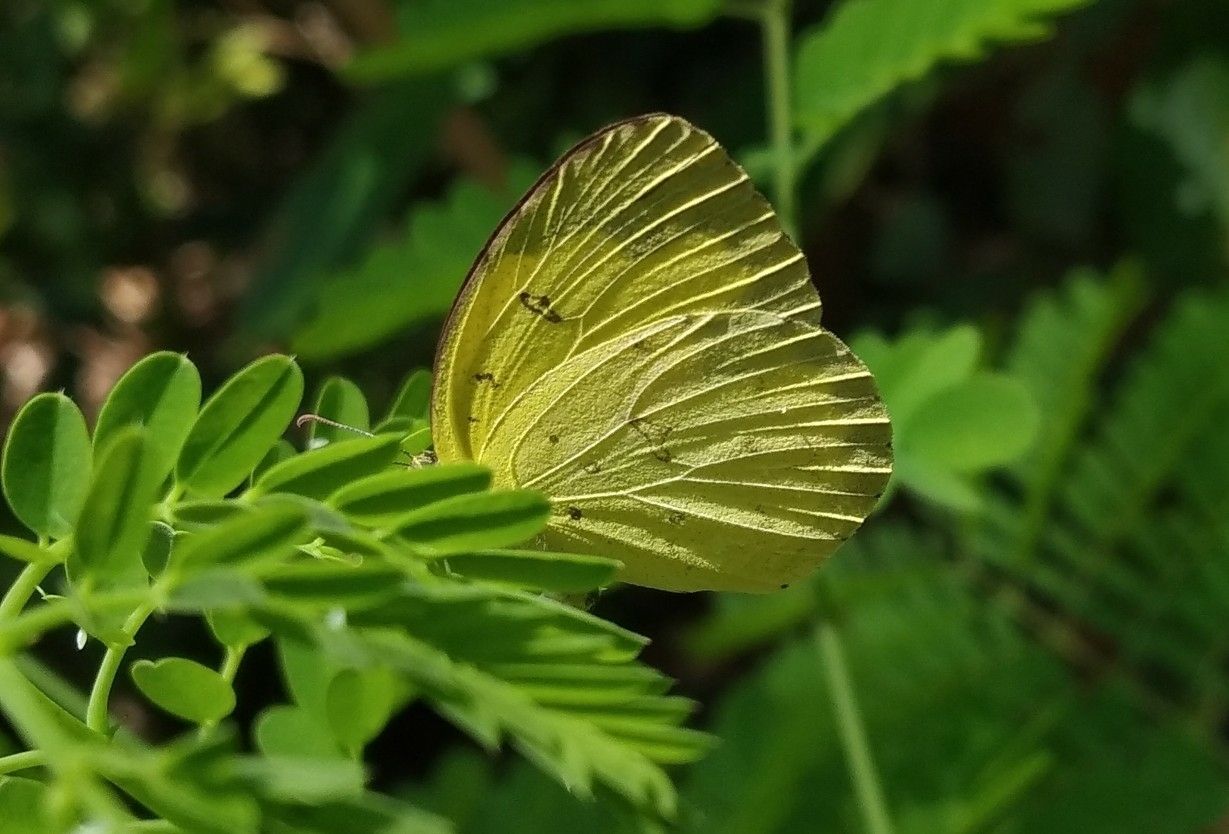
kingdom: Animalia
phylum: Arthropoda
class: Insecta
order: Lepidoptera
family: Pieridae
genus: Eurema
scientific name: Eurema hecabe
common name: Pale grass yellow
